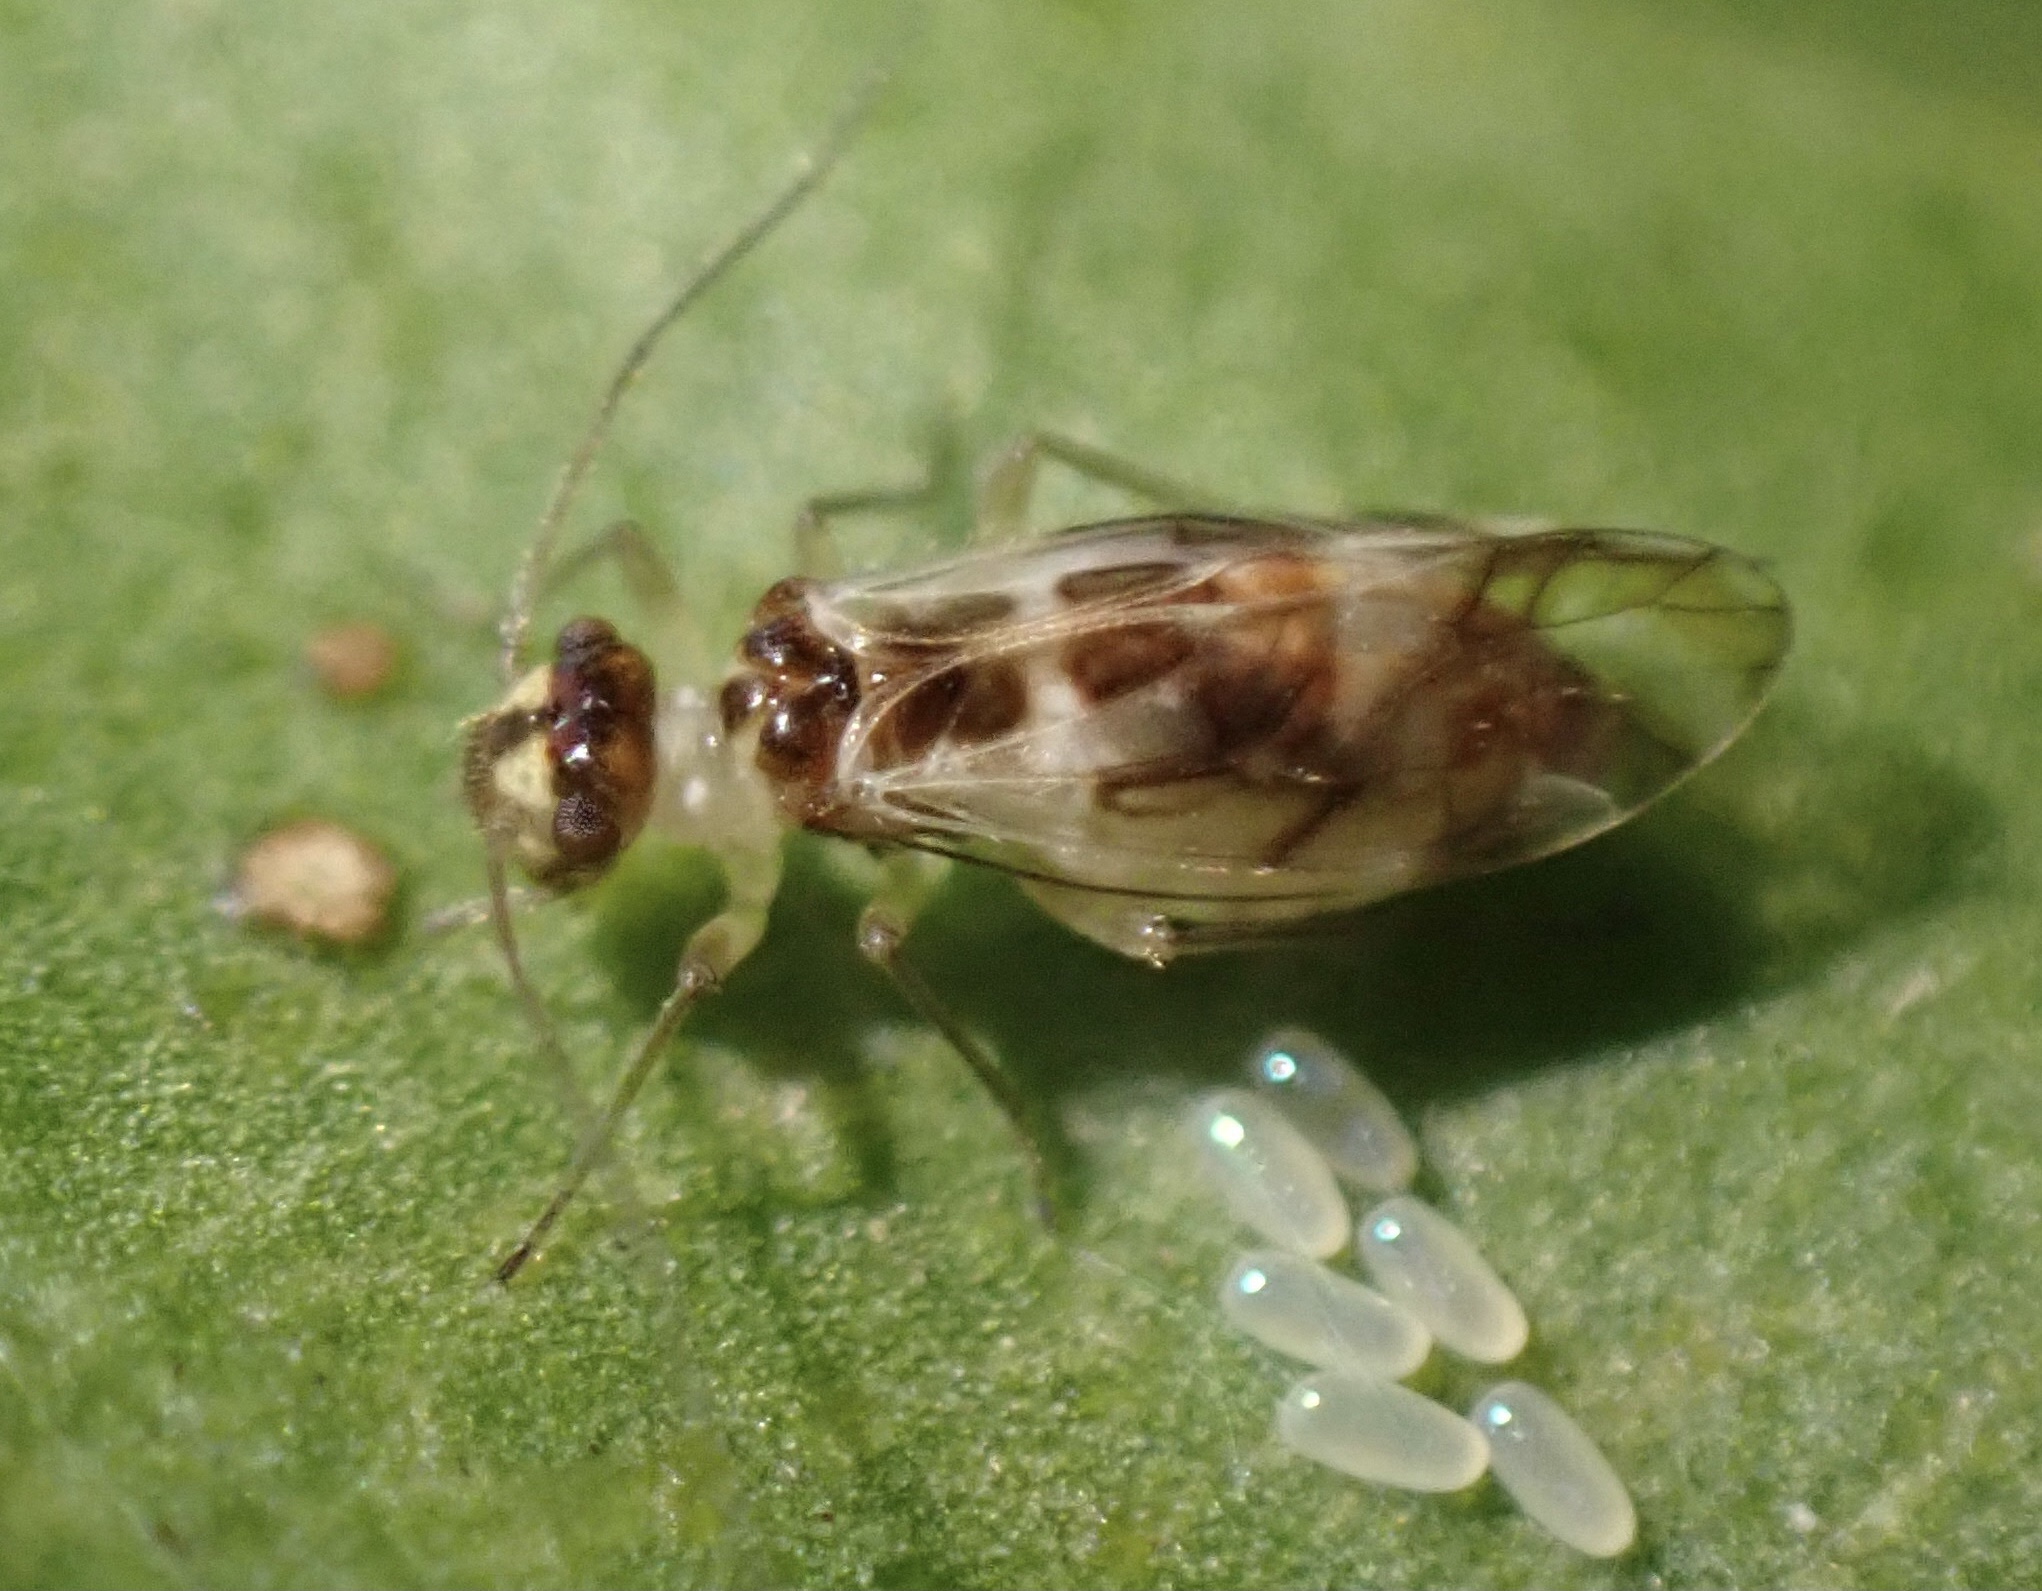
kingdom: Animalia
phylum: Arthropoda
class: Insecta
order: Psocodea
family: Stenopsocidae
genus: Graphopsocus
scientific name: Graphopsocus cruciatus
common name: Lizard bark louse
